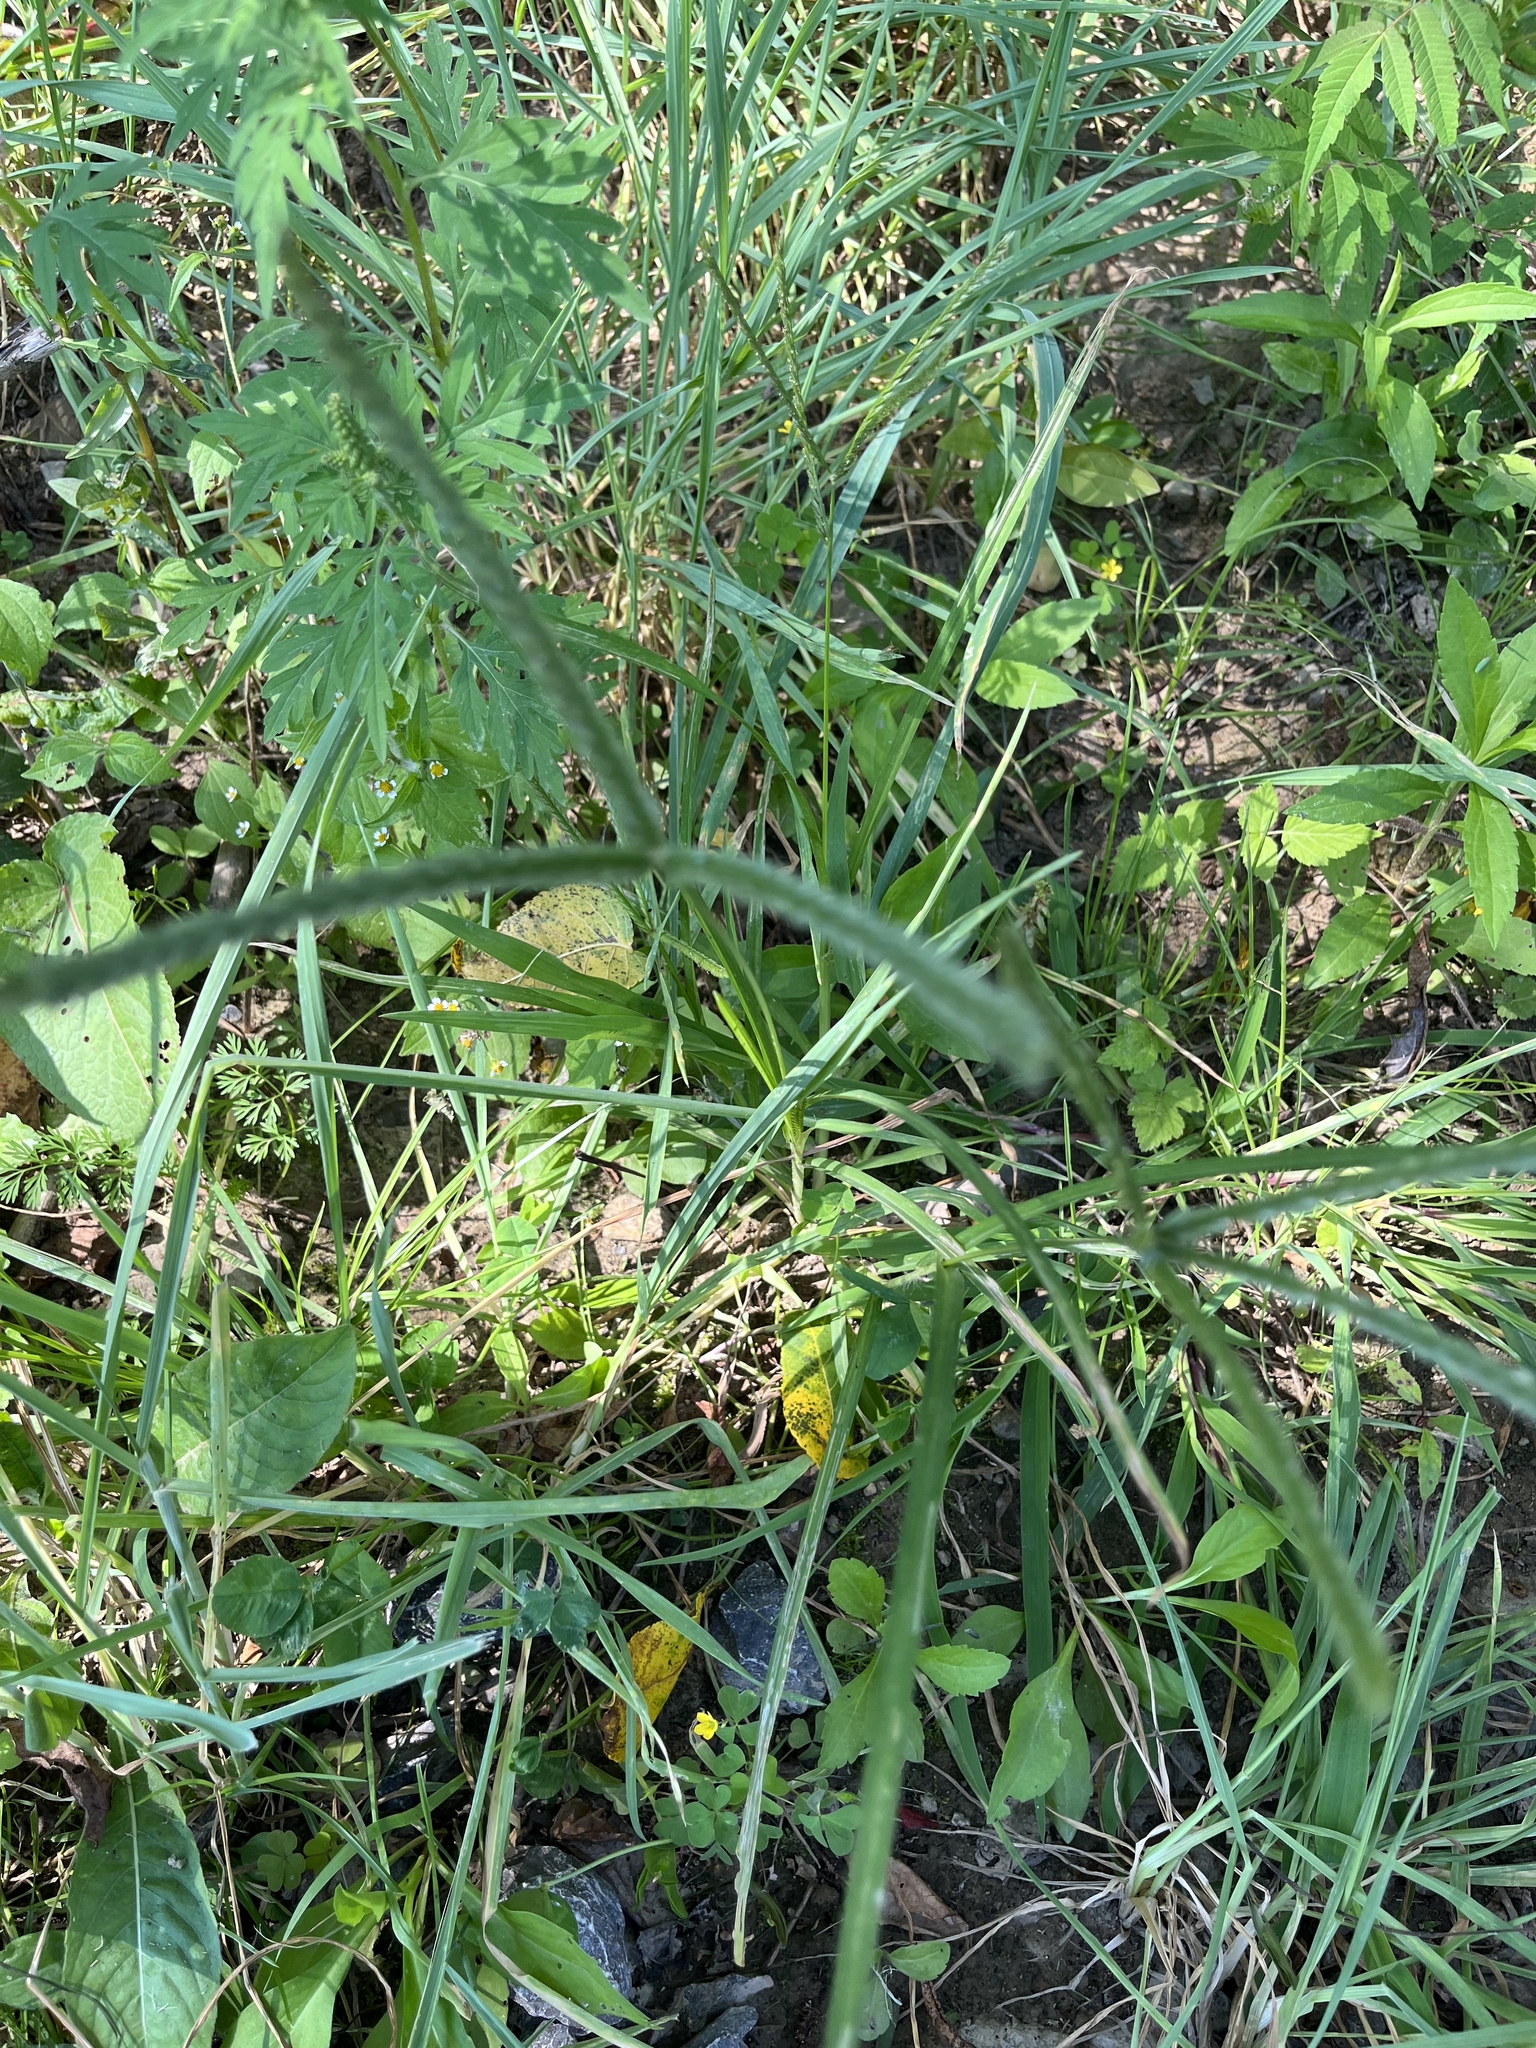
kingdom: Plantae
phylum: Tracheophyta
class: Liliopsida
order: Poales
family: Poaceae
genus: Eleusine
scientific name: Eleusine indica
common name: Yard-grass
